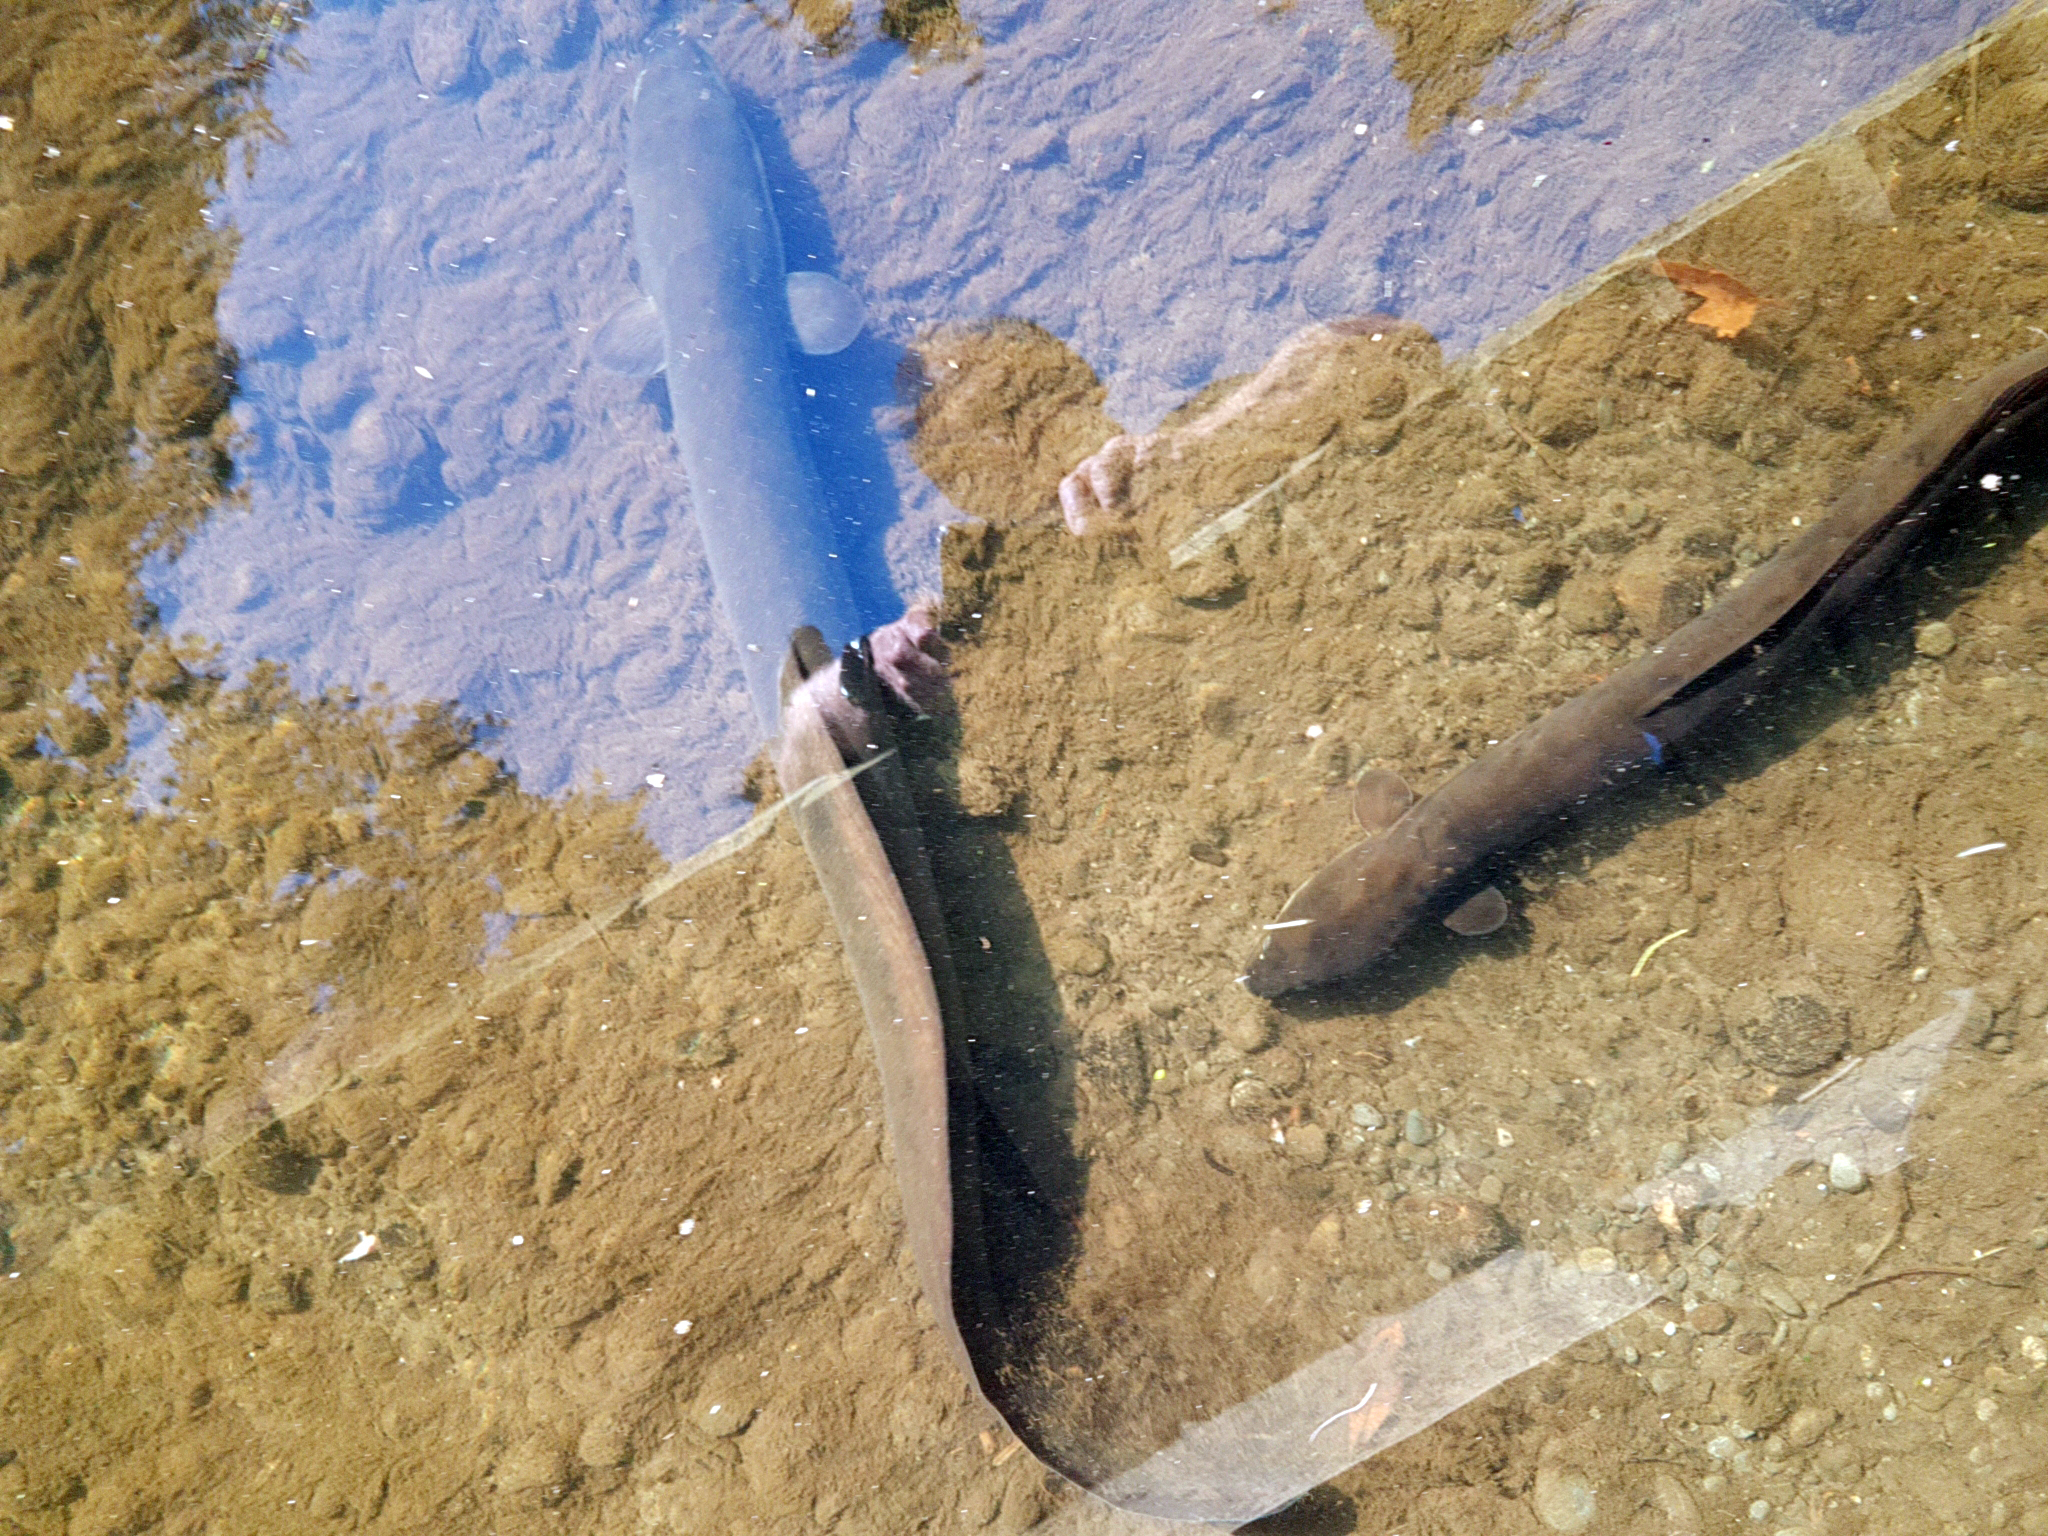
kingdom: Animalia
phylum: Chordata
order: Anguilliformes
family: Anguillidae
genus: Anguilla
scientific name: Anguilla dieffenbachii
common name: New zealand longfin eel
